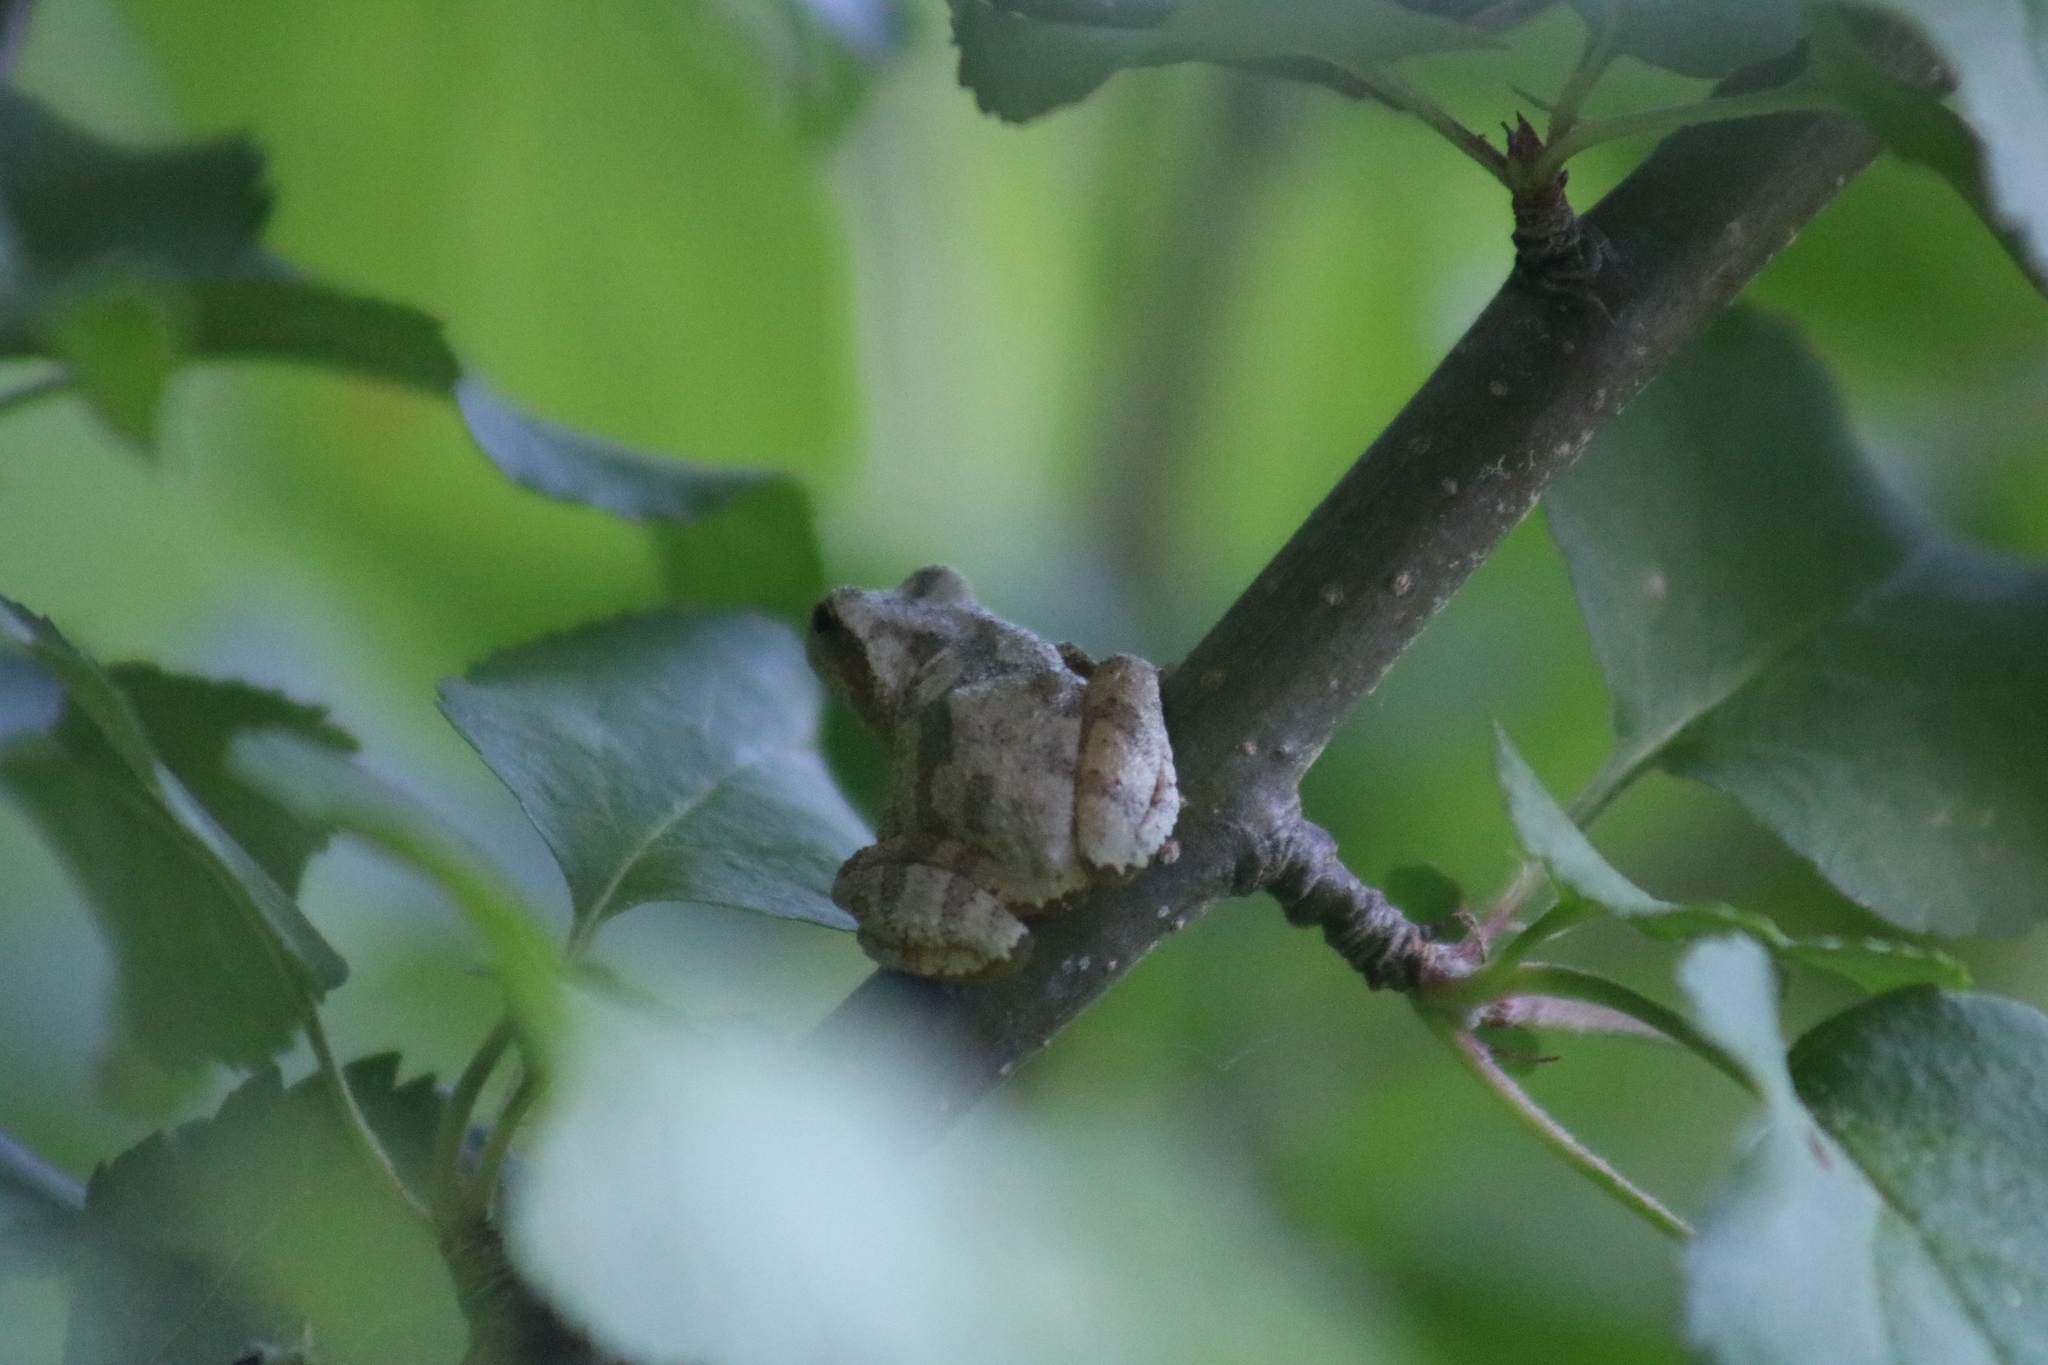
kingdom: Animalia
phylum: Chordata
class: Amphibia
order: Anura
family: Hylidae
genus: Pseudacris
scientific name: Pseudacris crucifer
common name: Spring peeper
